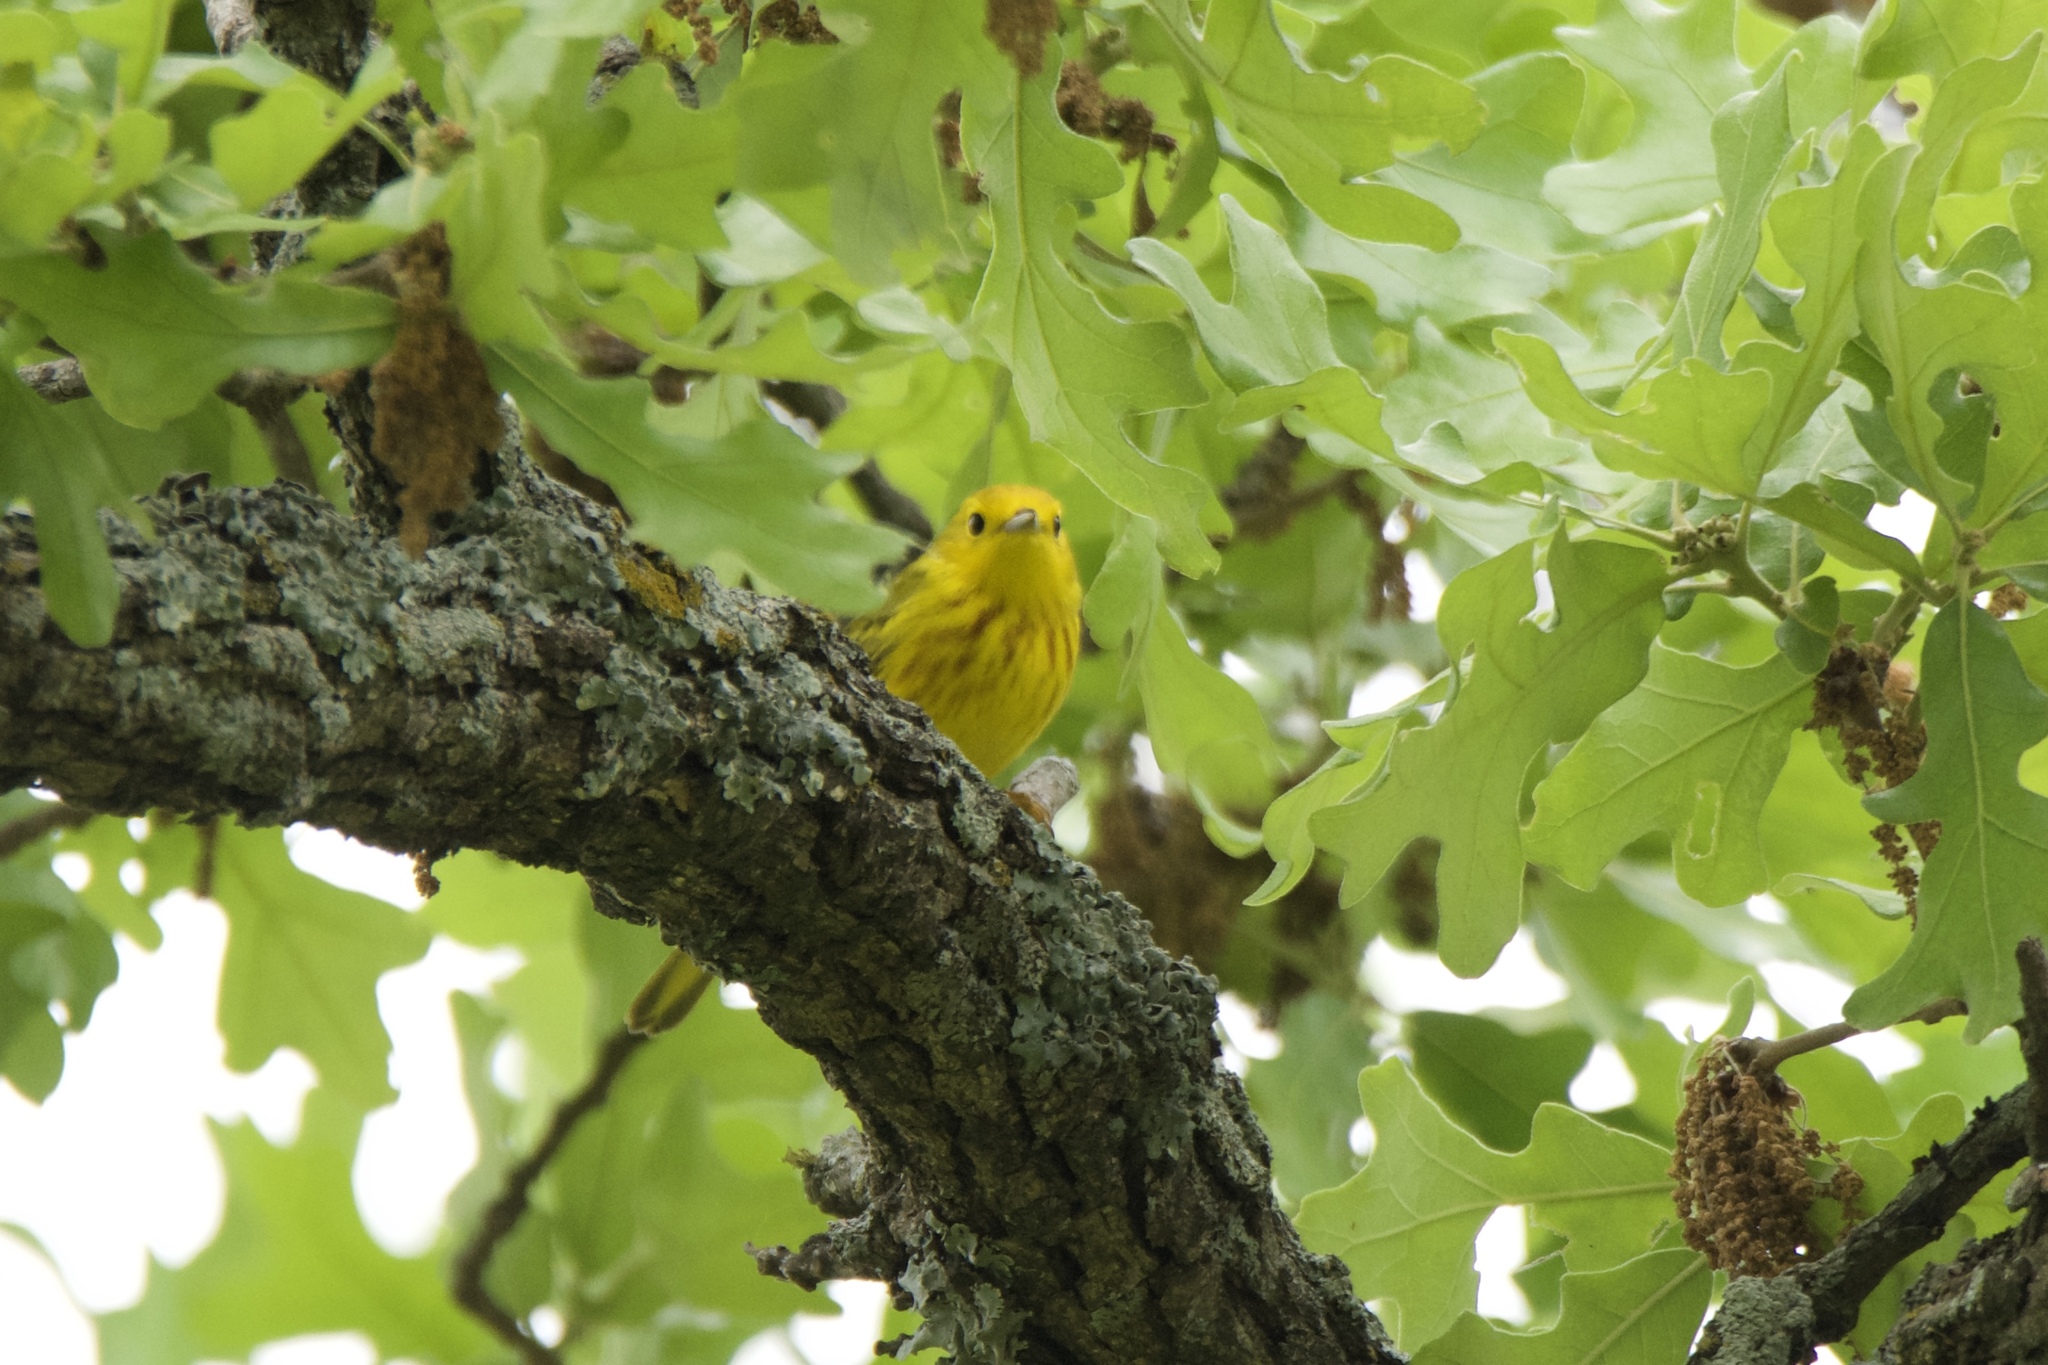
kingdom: Animalia
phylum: Chordata
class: Aves
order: Passeriformes
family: Parulidae
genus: Setophaga
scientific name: Setophaga petechia
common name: Yellow warbler
